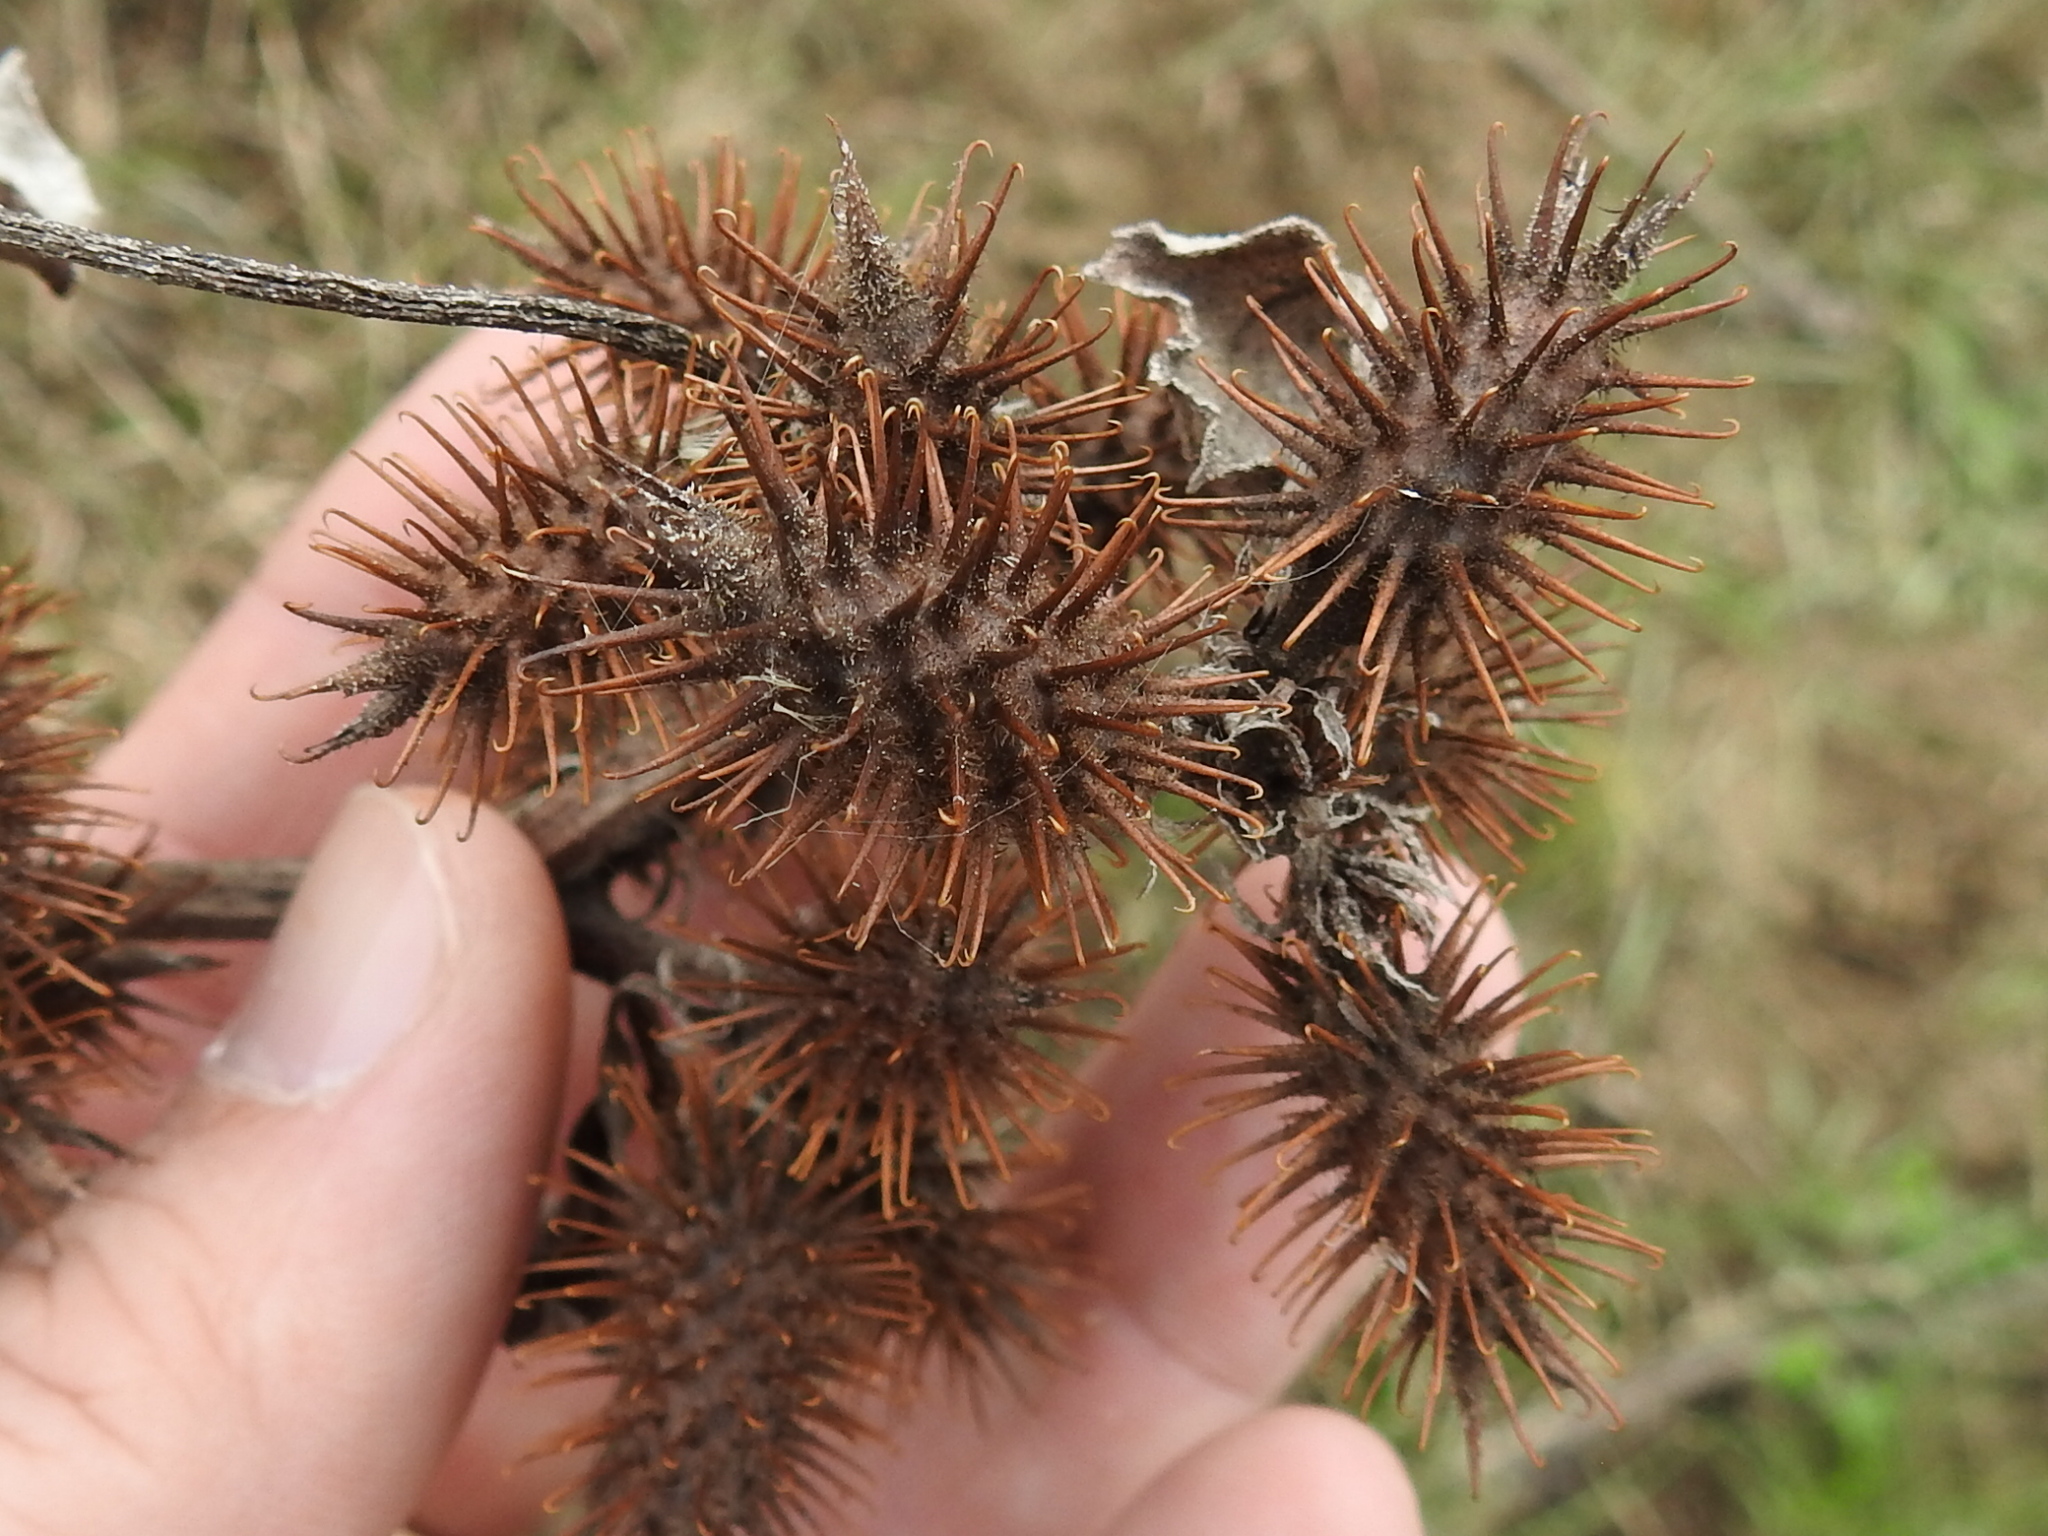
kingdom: Plantae
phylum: Tracheophyta
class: Magnoliopsida
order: Asterales
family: Asteraceae
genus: Xanthium
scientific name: Xanthium strumarium
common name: Rough cocklebur
